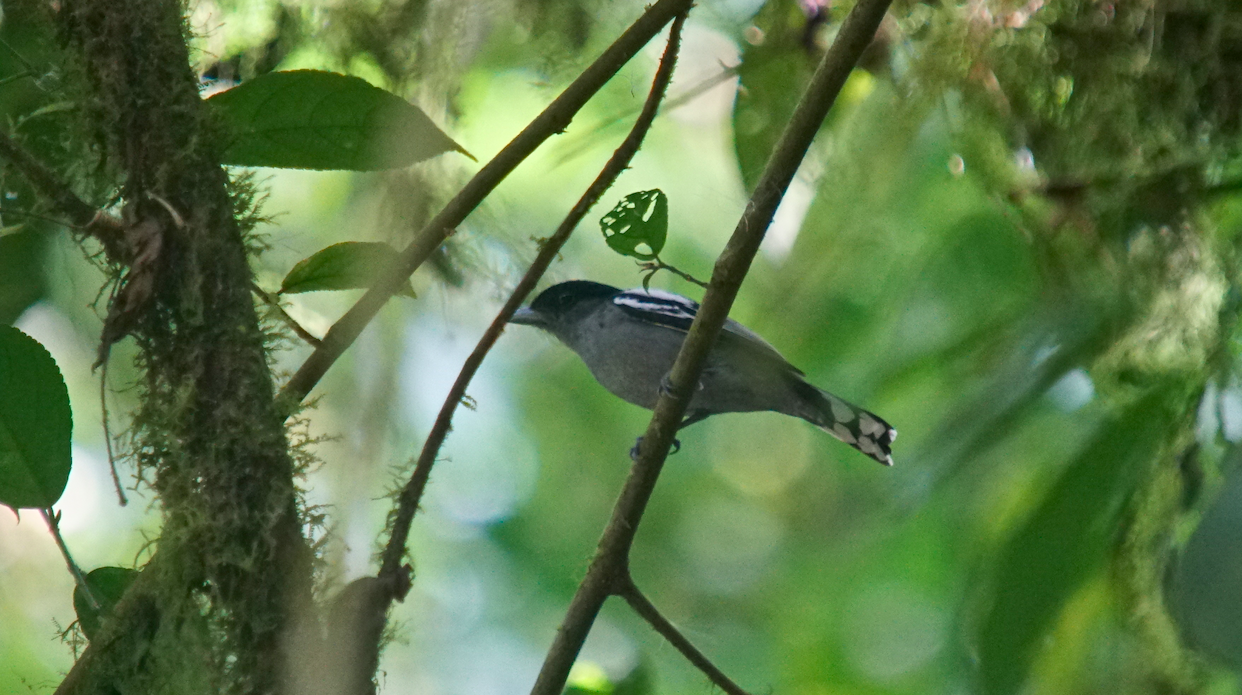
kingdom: Animalia
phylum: Chordata
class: Aves
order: Passeriformes
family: Cotingidae
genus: Pachyramphus
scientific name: Pachyramphus polychopterus
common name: White-winged becard
